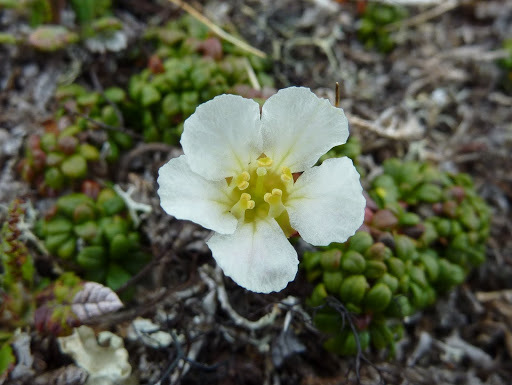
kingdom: Plantae
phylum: Tracheophyta
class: Magnoliopsida
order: Ericales
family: Diapensiaceae
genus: Diapensia
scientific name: Diapensia obovata
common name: Alaska diapensia
